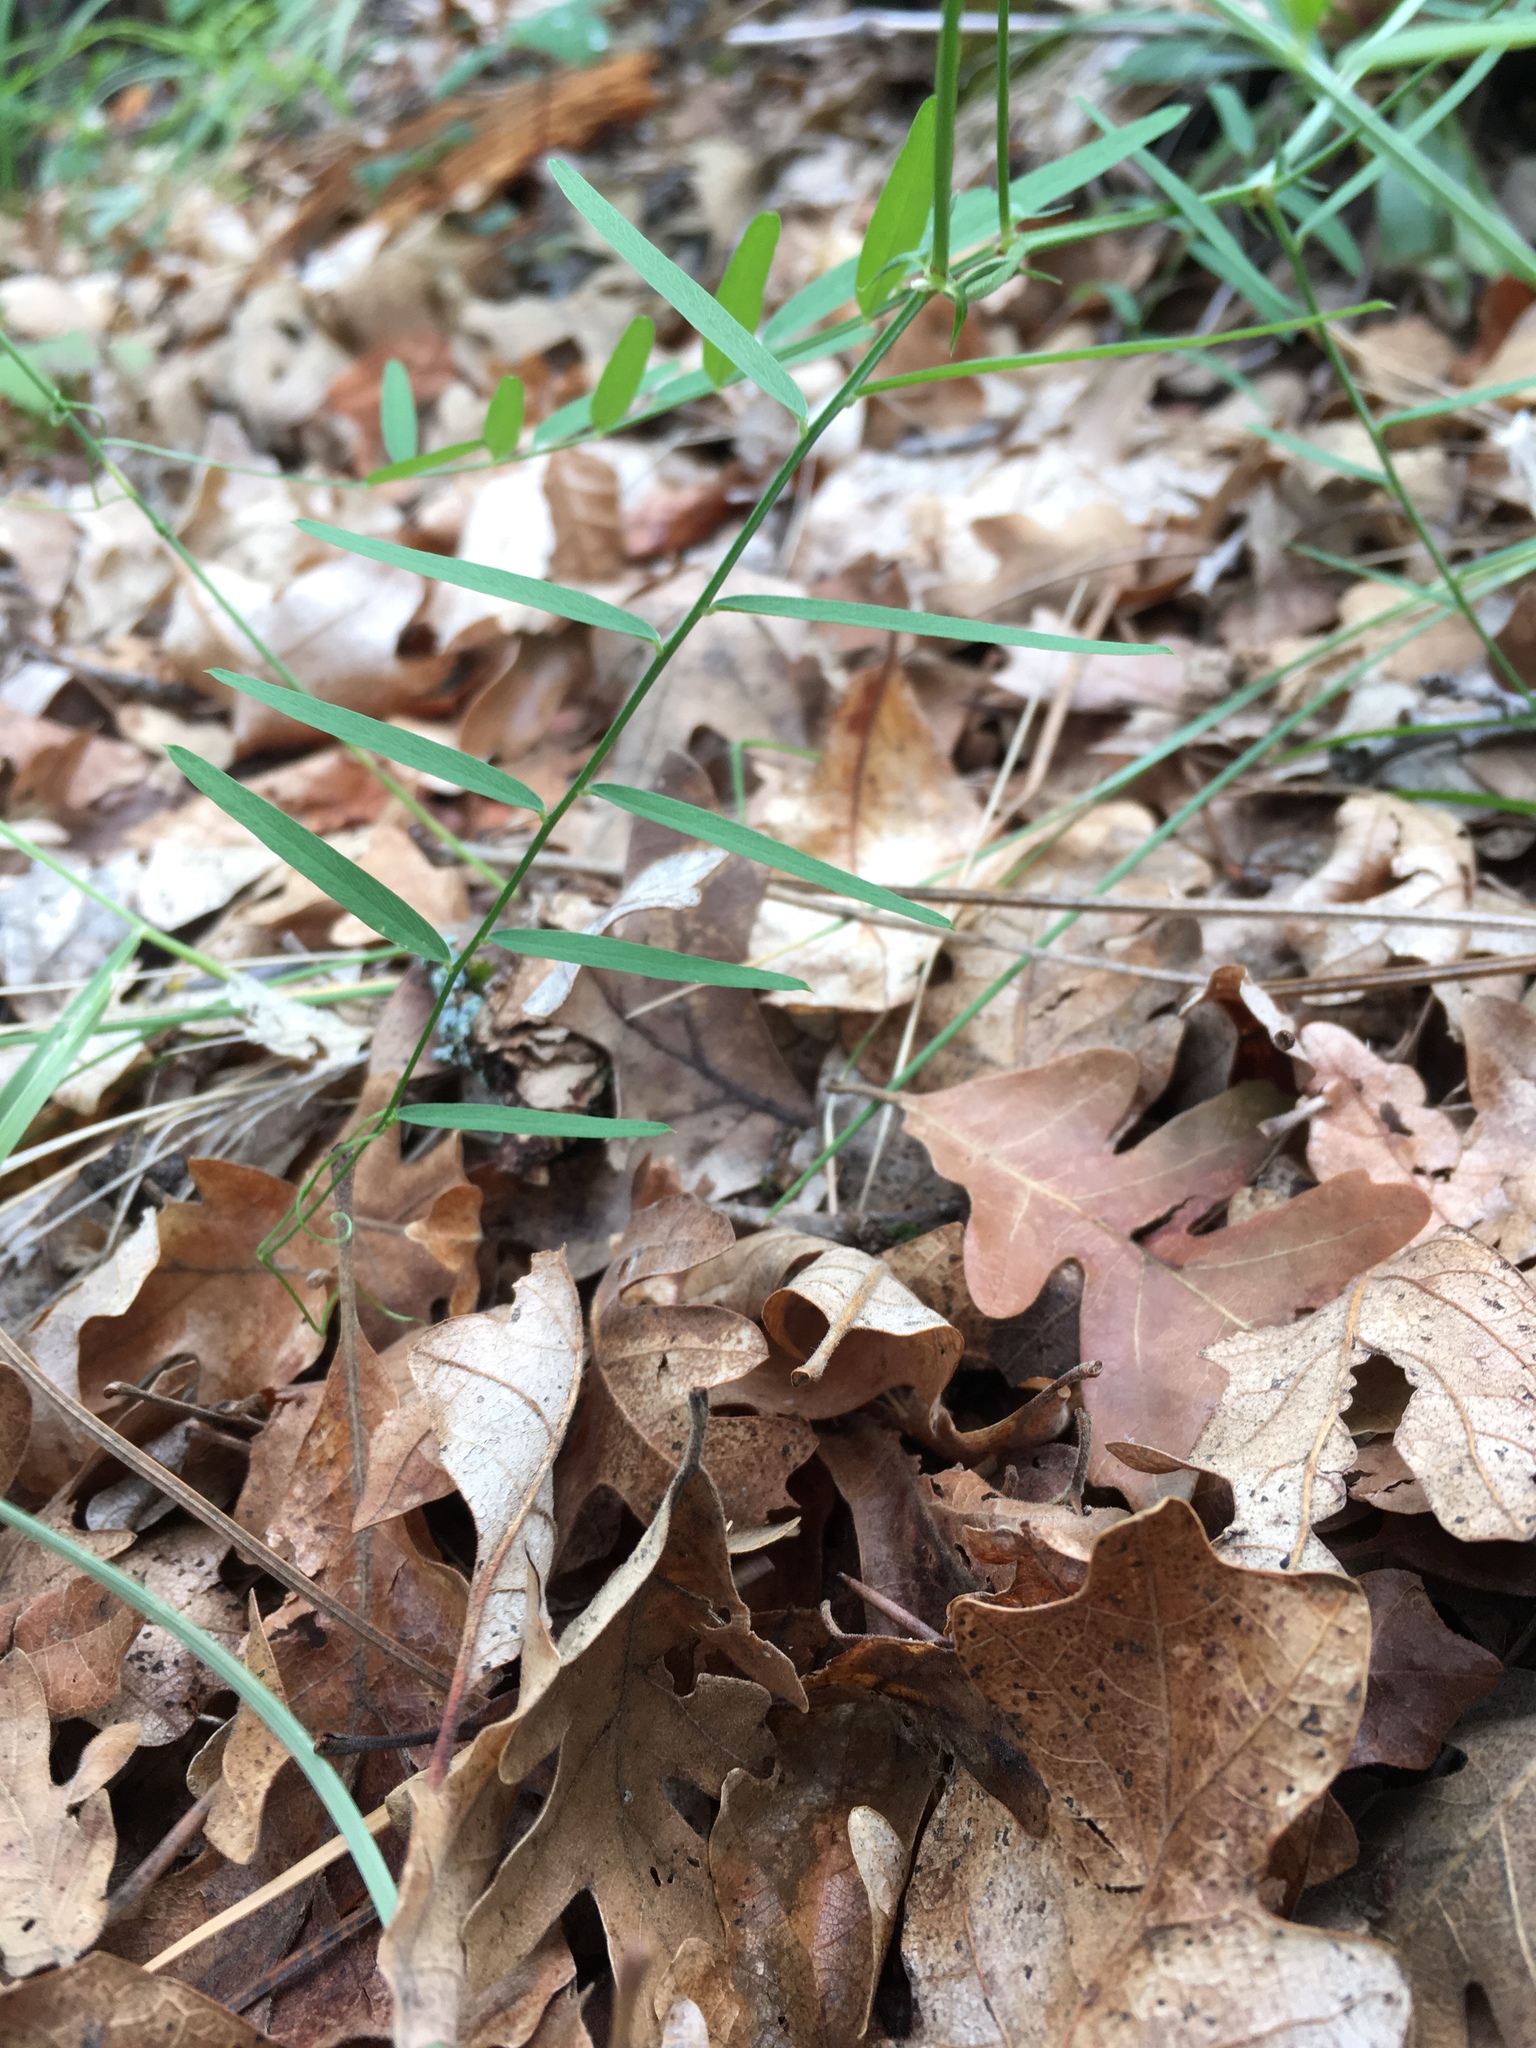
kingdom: Plantae
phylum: Tracheophyta
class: Magnoliopsida
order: Fabales
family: Fabaceae
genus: Vicia
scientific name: Vicia americana
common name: American vetch
